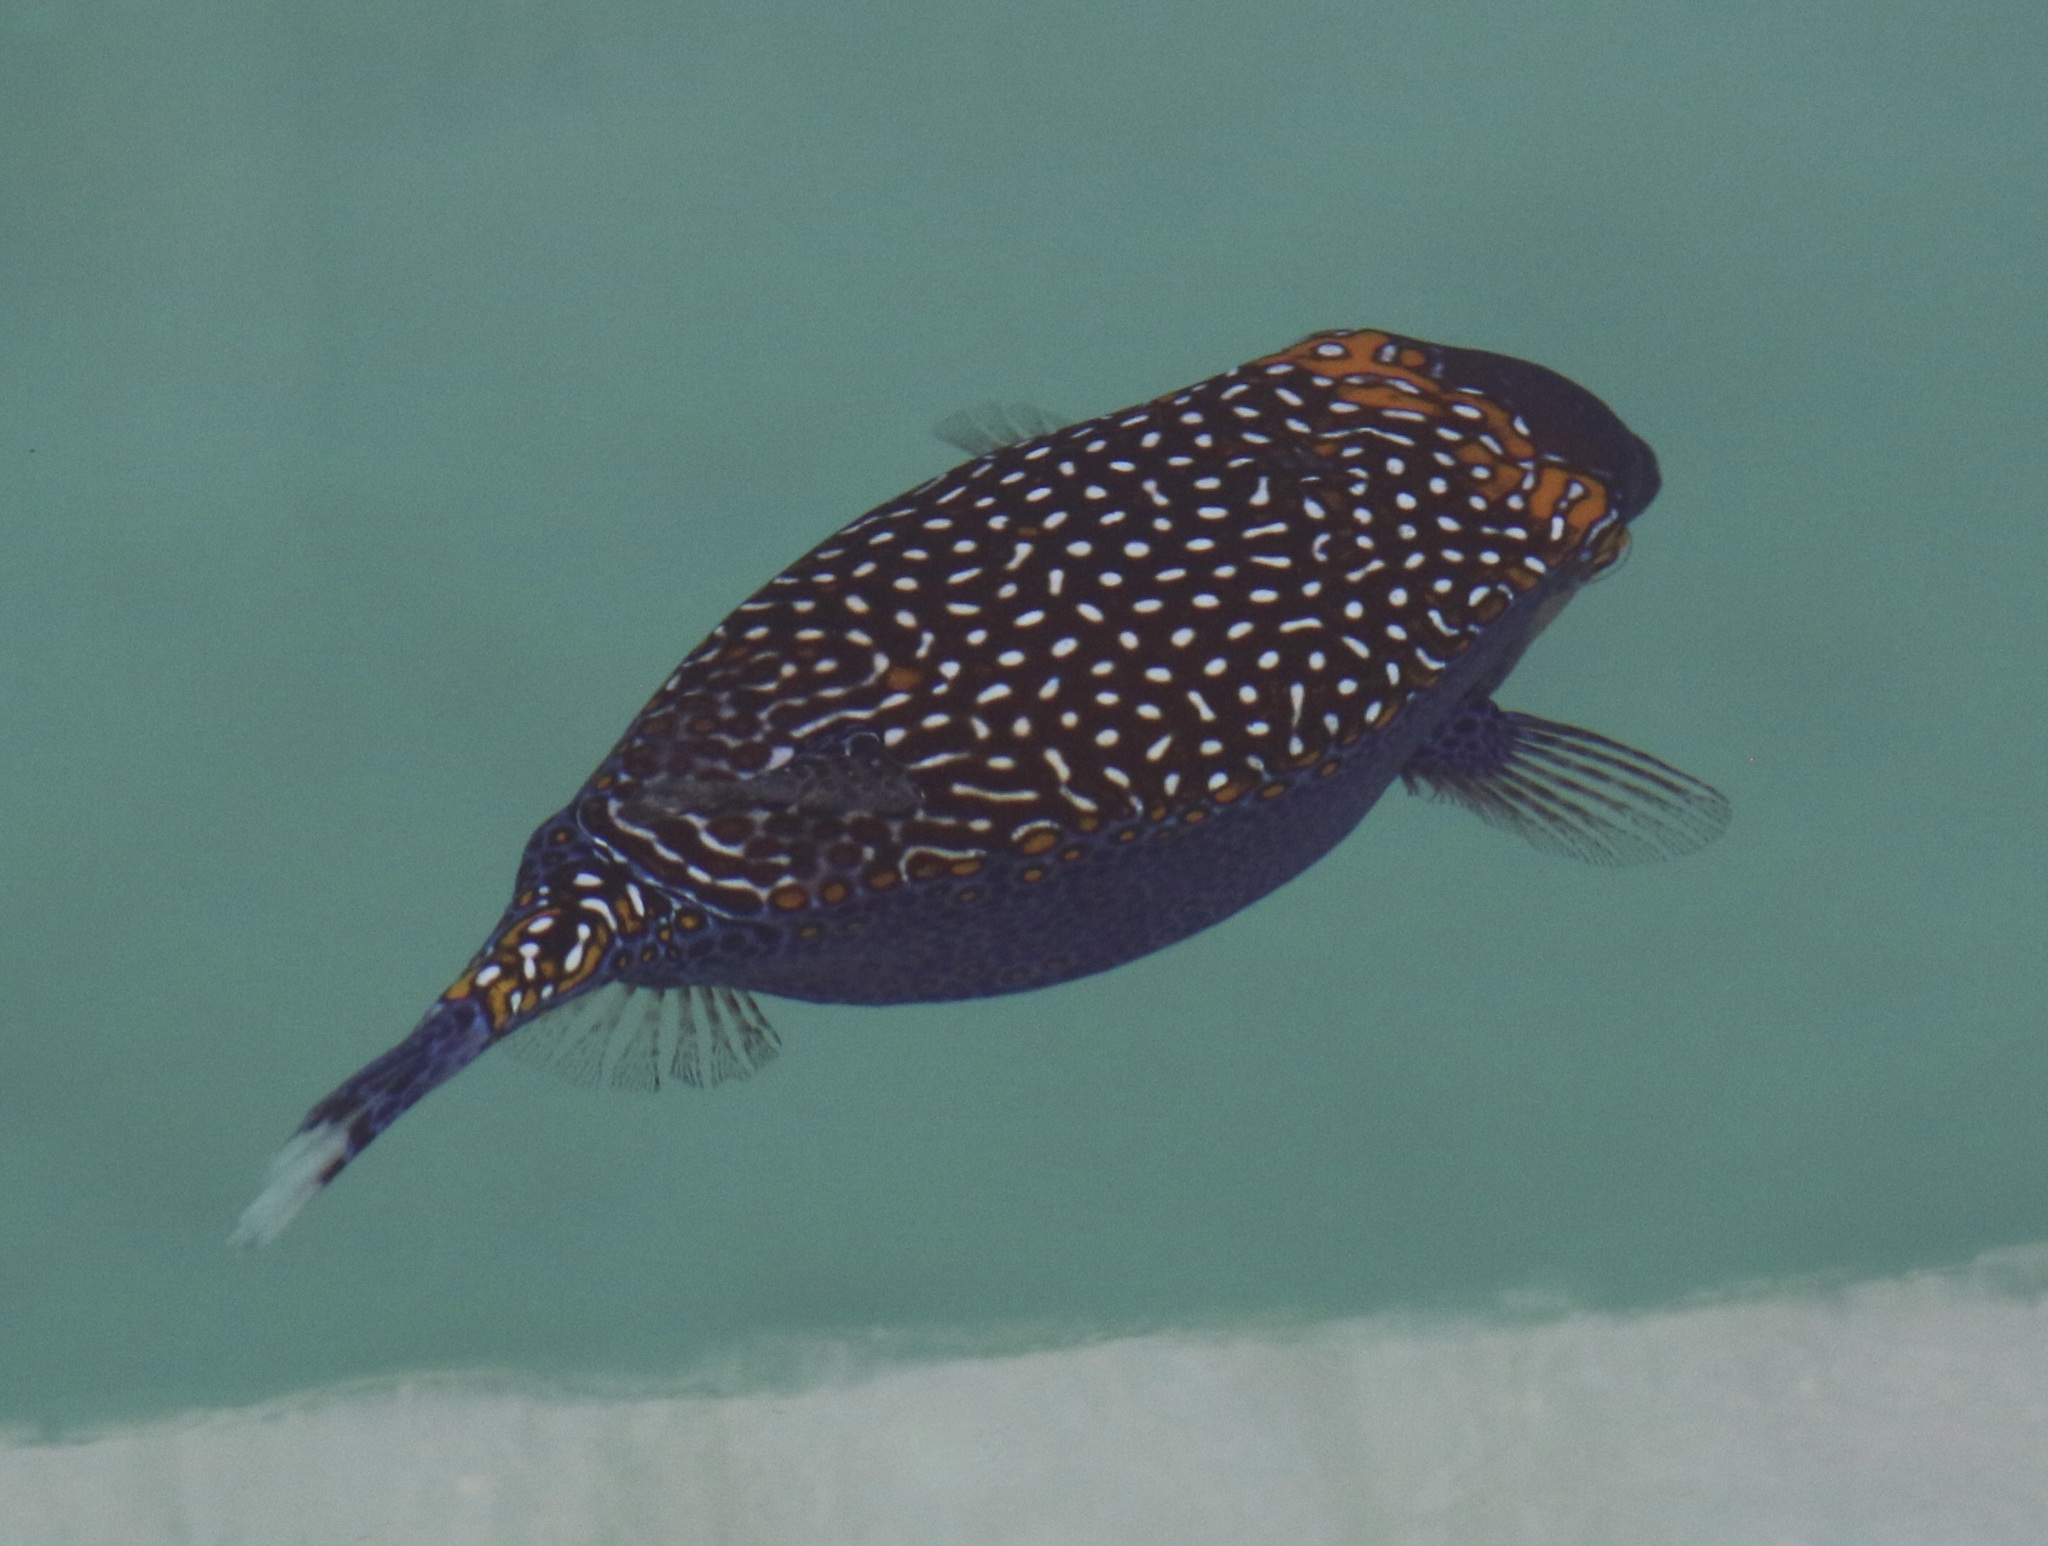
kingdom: Animalia
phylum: Chordata
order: Tetraodontiformes
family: Ostraciidae
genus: Ostracion
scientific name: Ostracion meleagris
